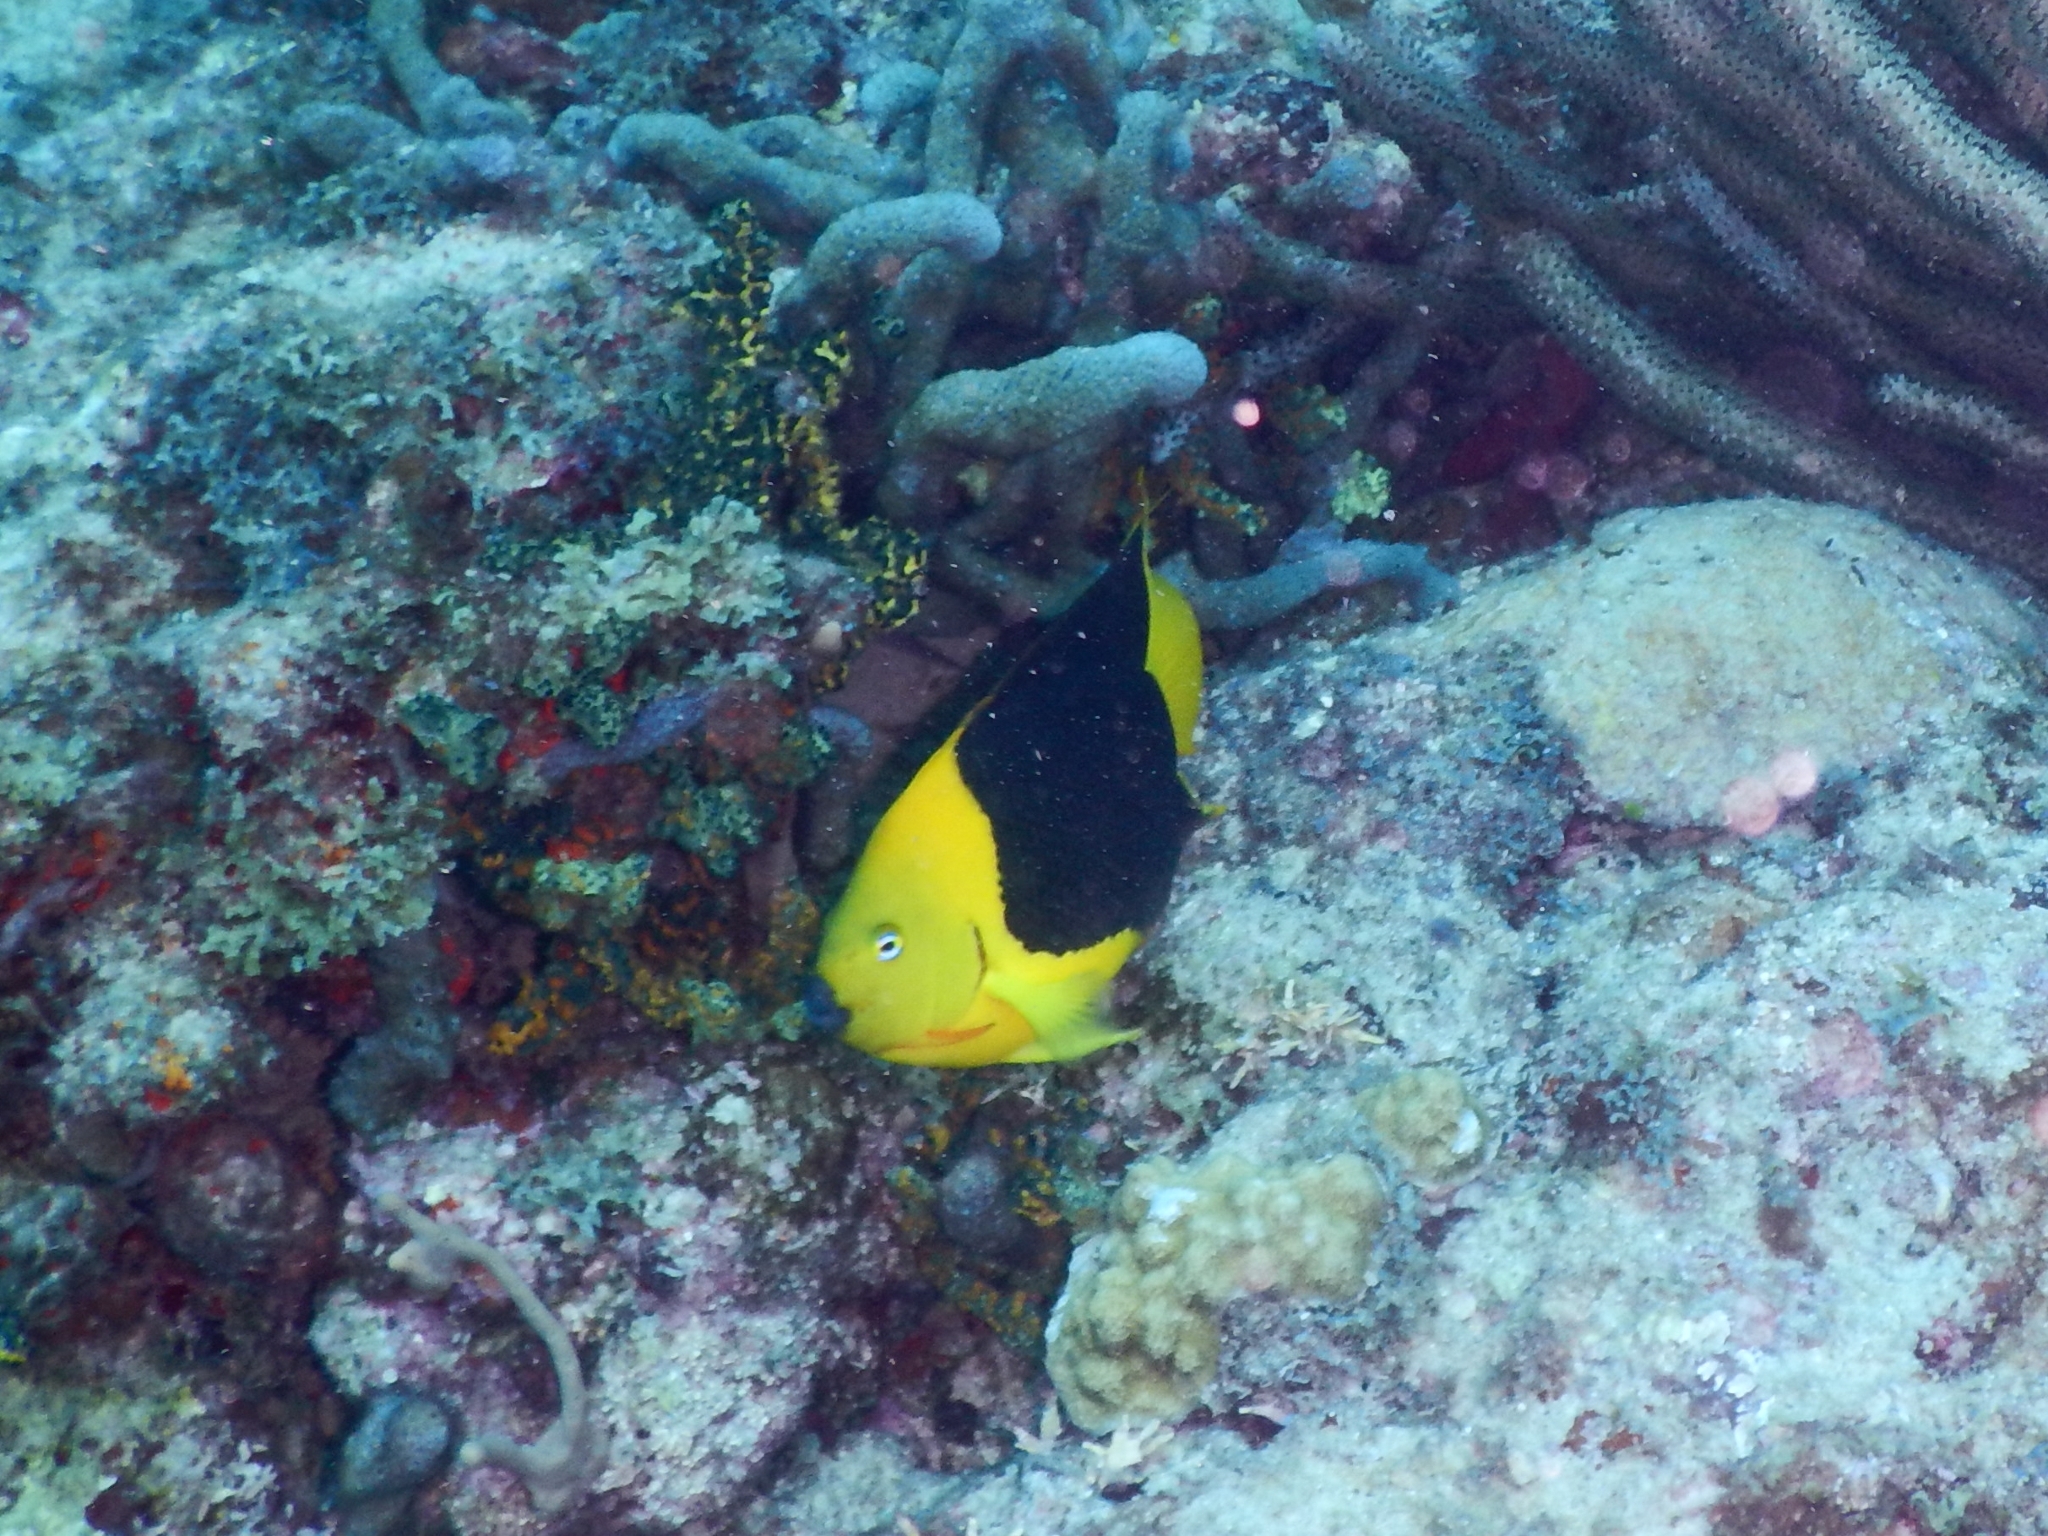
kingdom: Animalia
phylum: Chordata
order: Perciformes
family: Pomacanthidae
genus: Holacanthus
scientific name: Holacanthus tricolor
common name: Rock beauty
